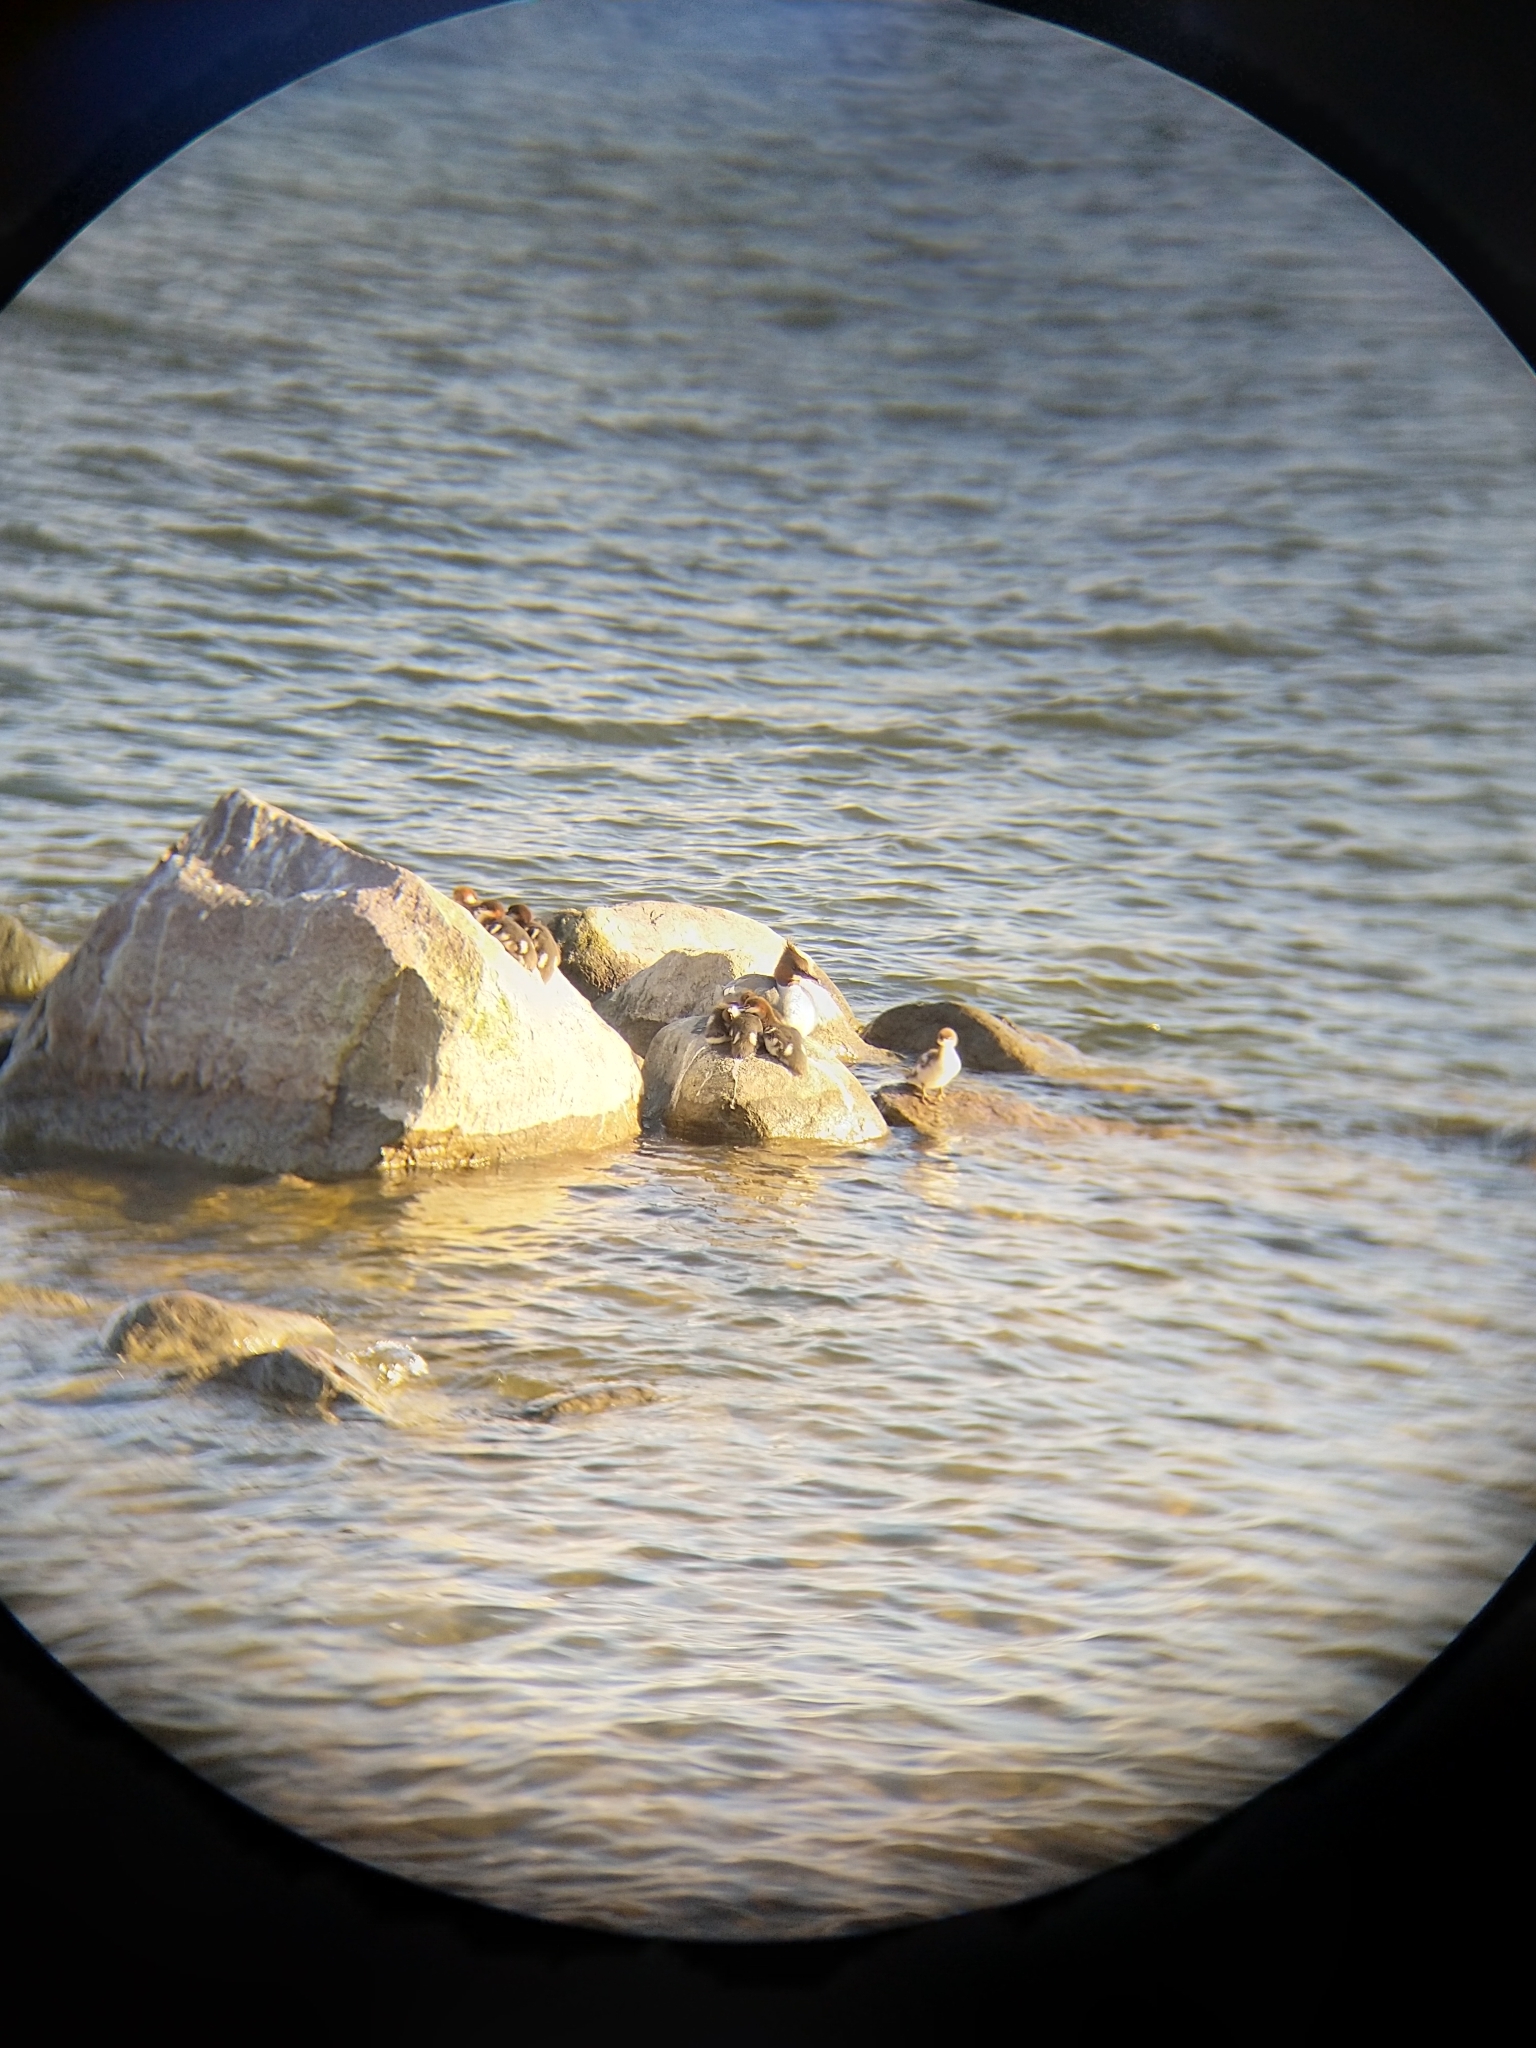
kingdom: Animalia
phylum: Chordata
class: Aves
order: Anseriformes
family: Anatidae
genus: Mergus
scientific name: Mergus merganser
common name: Common merganser
